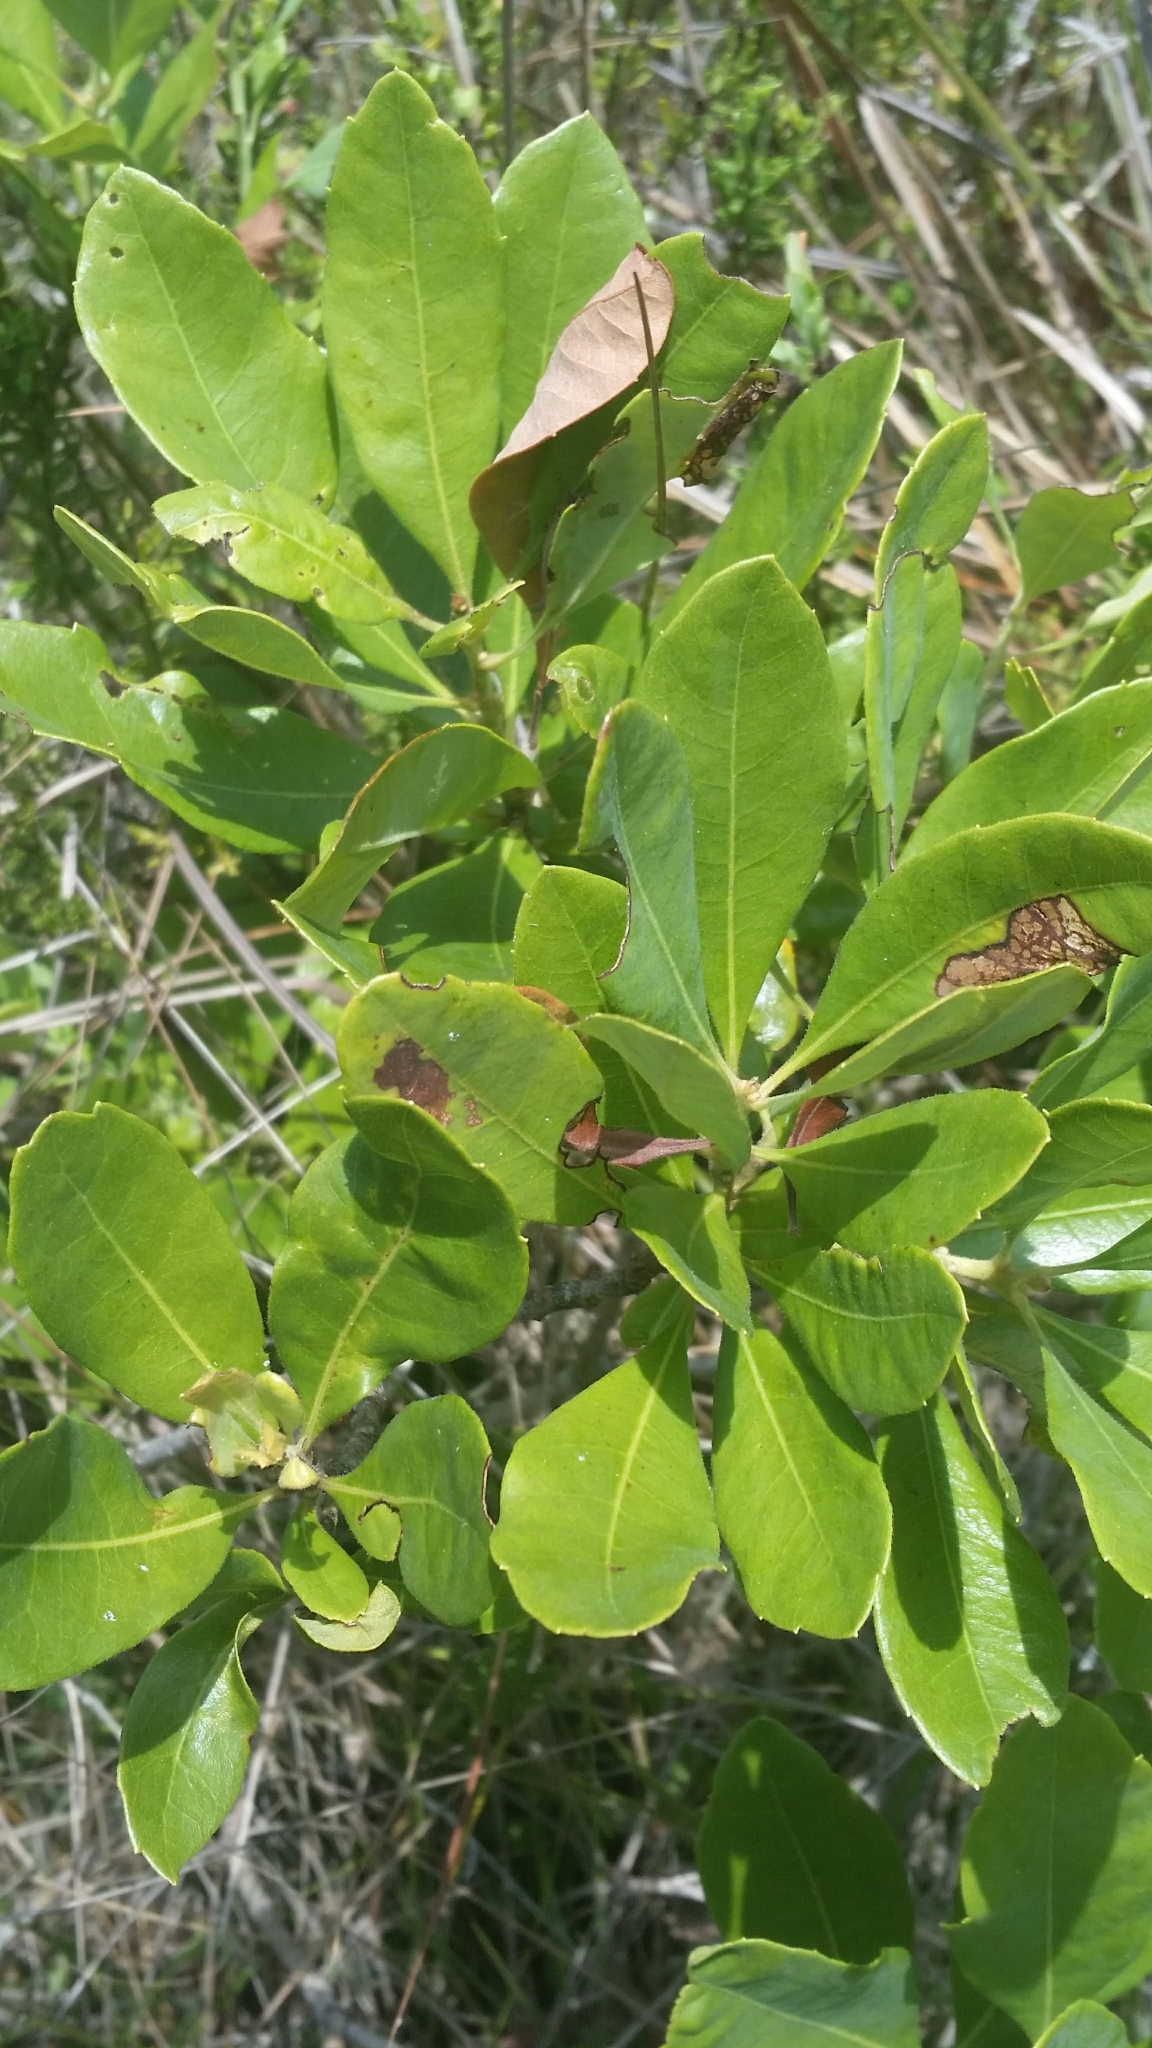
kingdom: Plantae
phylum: Tracheophyta
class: Magnoliopsida
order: Fagales
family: Myricaceae
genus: Morella
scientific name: Morella caroliniensis
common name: Evergreen bayberry
